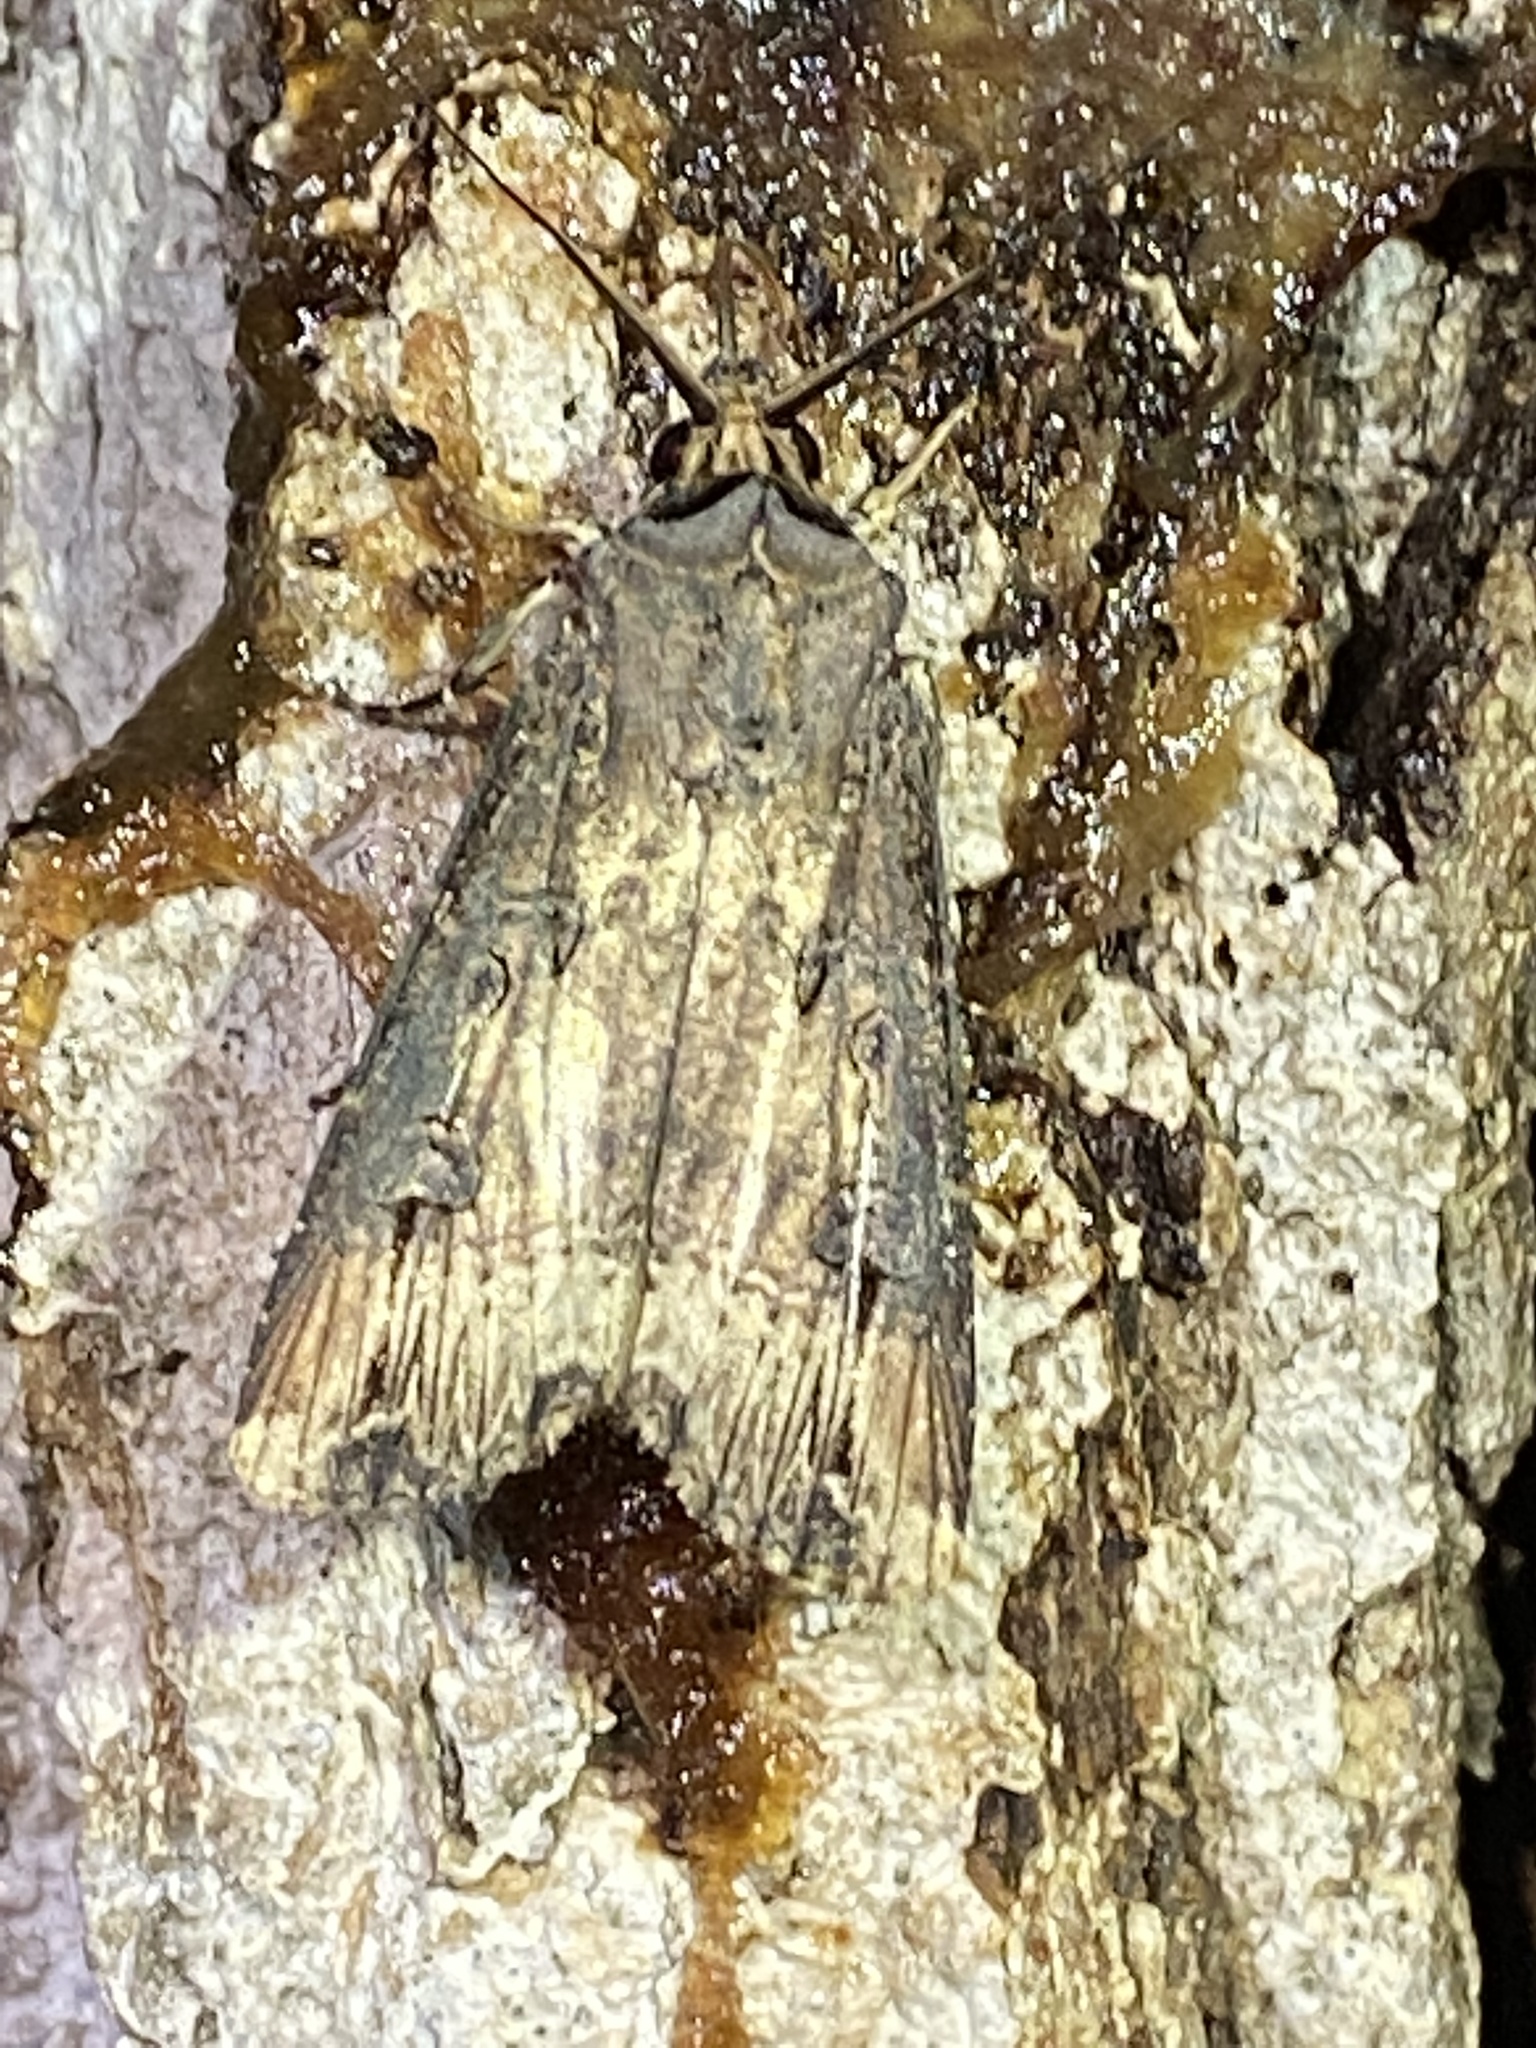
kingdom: Animalia
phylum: Arthropoda
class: Insecta
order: Lepidoptera
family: Noctuidae
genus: Agrotis
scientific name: Agrotis ipsilon
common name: Dark sword-grass
